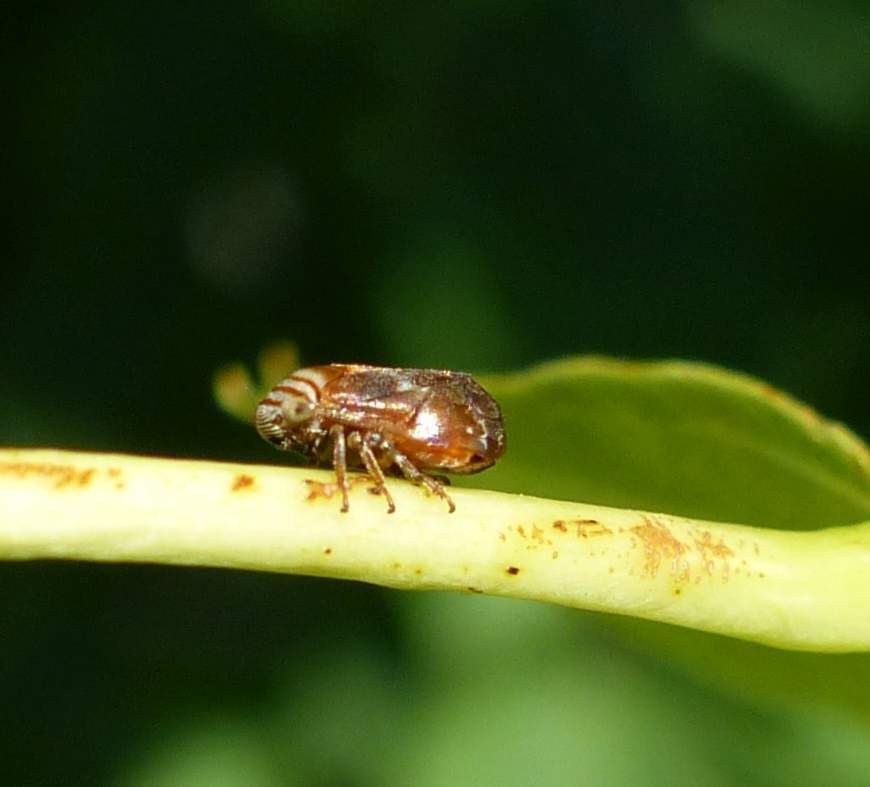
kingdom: Animalia
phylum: Arthropoda
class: Insecta
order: Hemiptera
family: Clastopteridae
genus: Clastoptera
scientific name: Clastoptera obtusa
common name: Alder spittlebug
